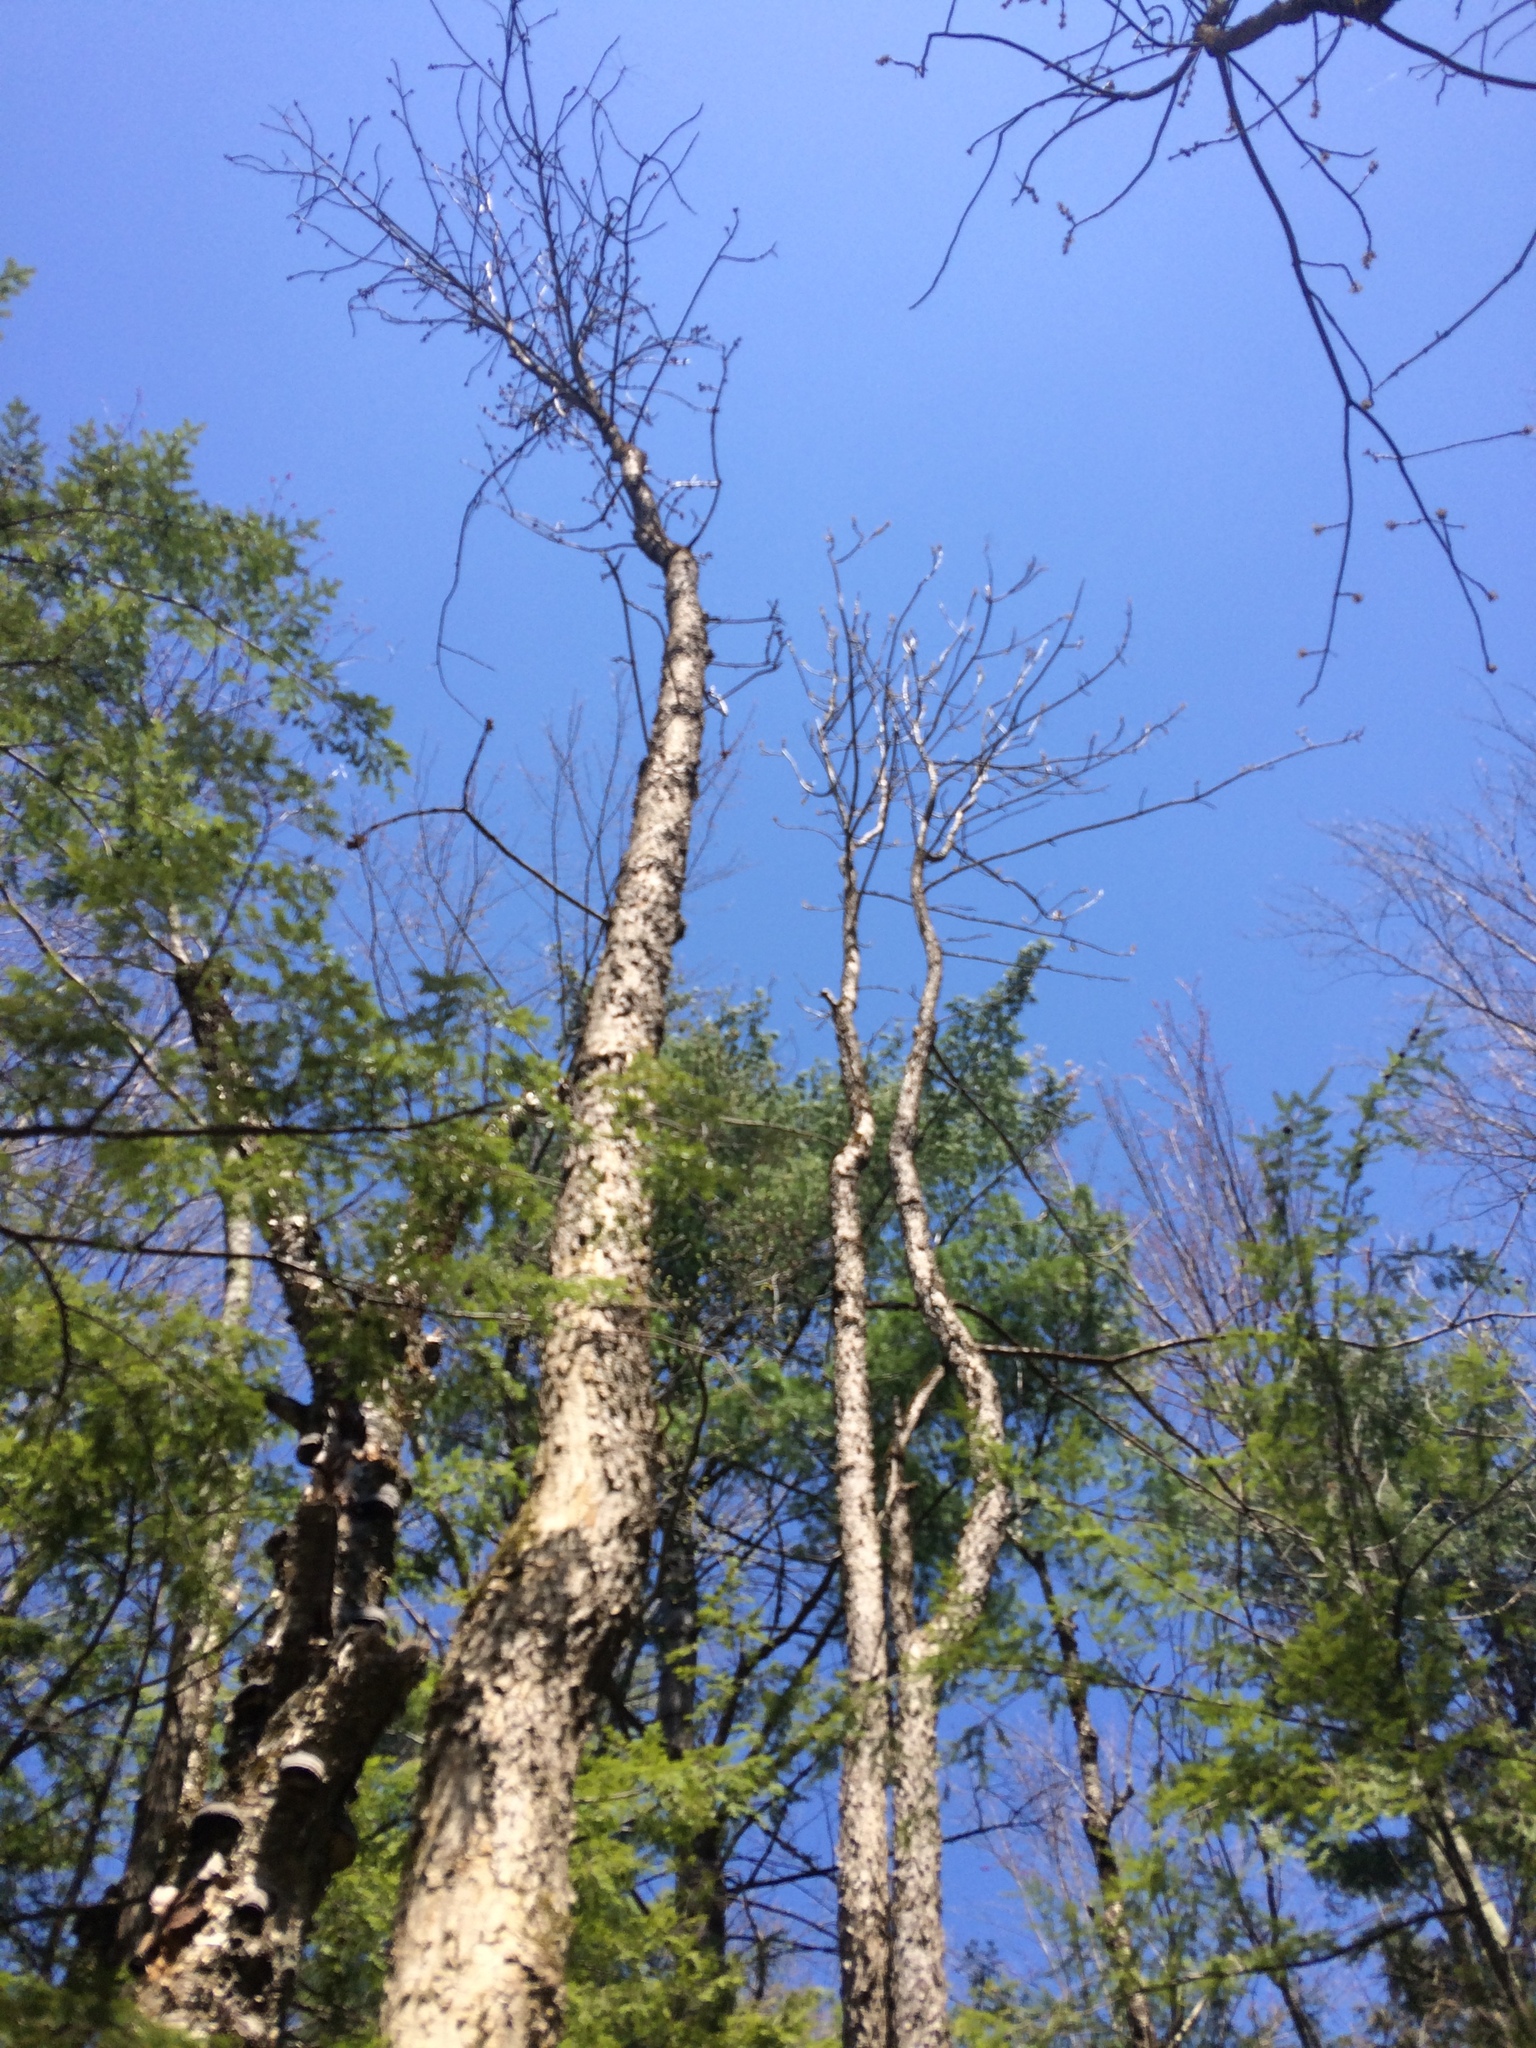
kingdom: Plantae
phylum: Tracheophyta
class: Magnoliopsida
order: Lamiales
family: Oleaceae
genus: Fraxinus
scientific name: Fraxinus nigra
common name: Black ash
